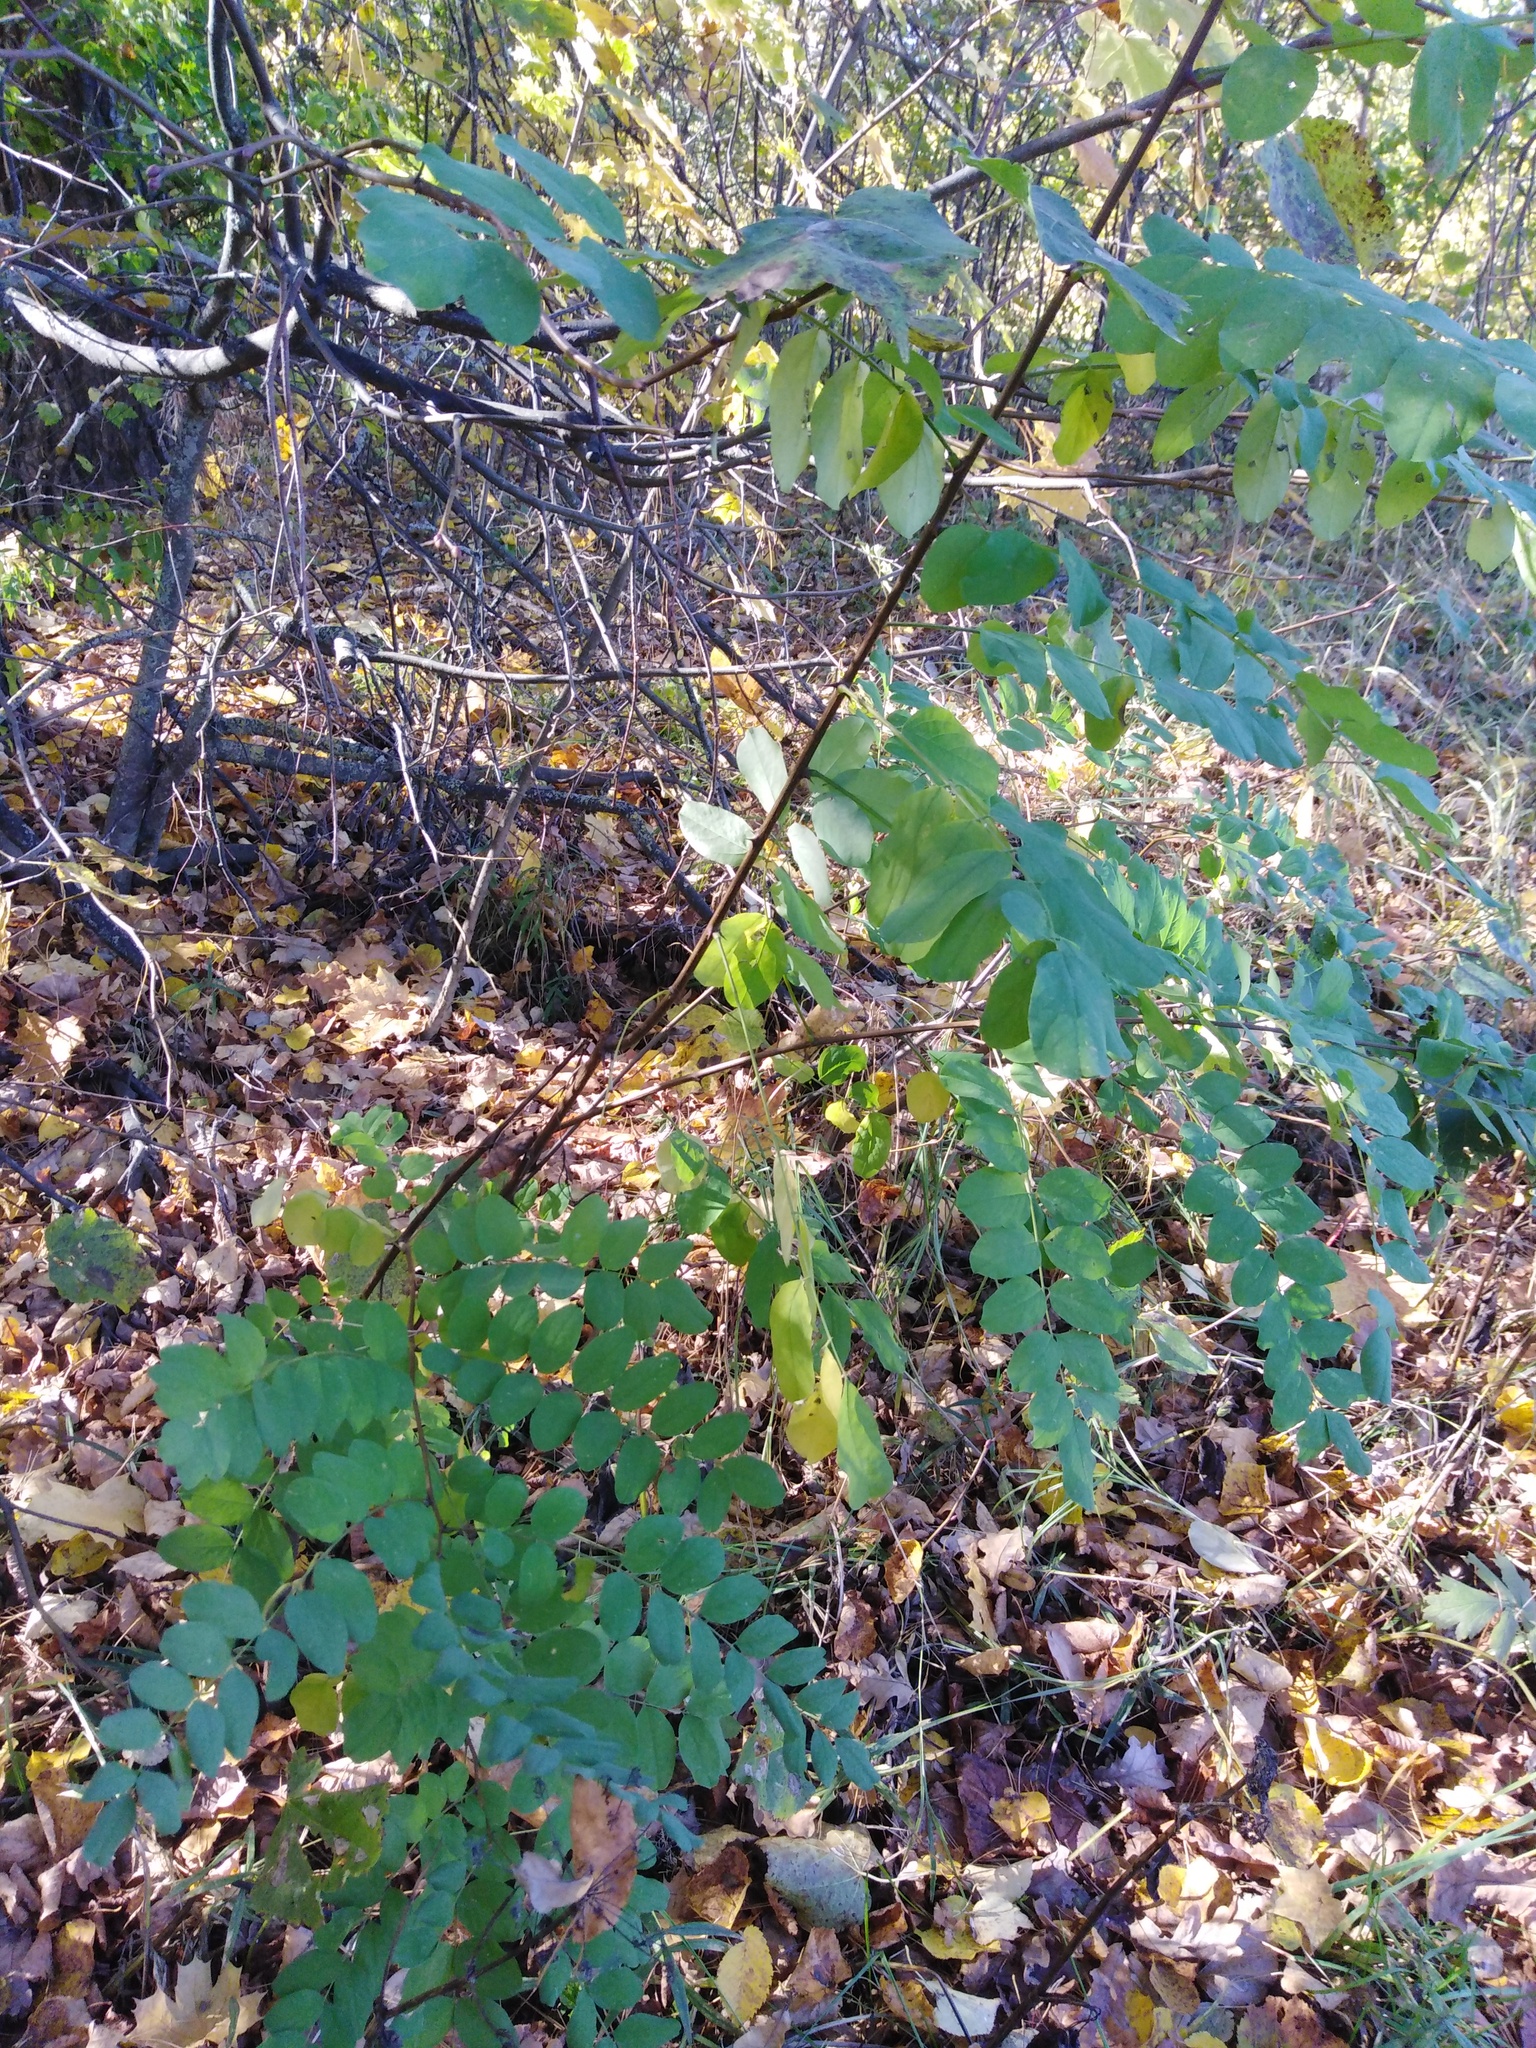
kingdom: Plantae
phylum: Tracheophyta
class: Magnoliopsida
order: Fabales
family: Fabaceae
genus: Robinia
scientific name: Robinia pseudoacacia
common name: Black locust
